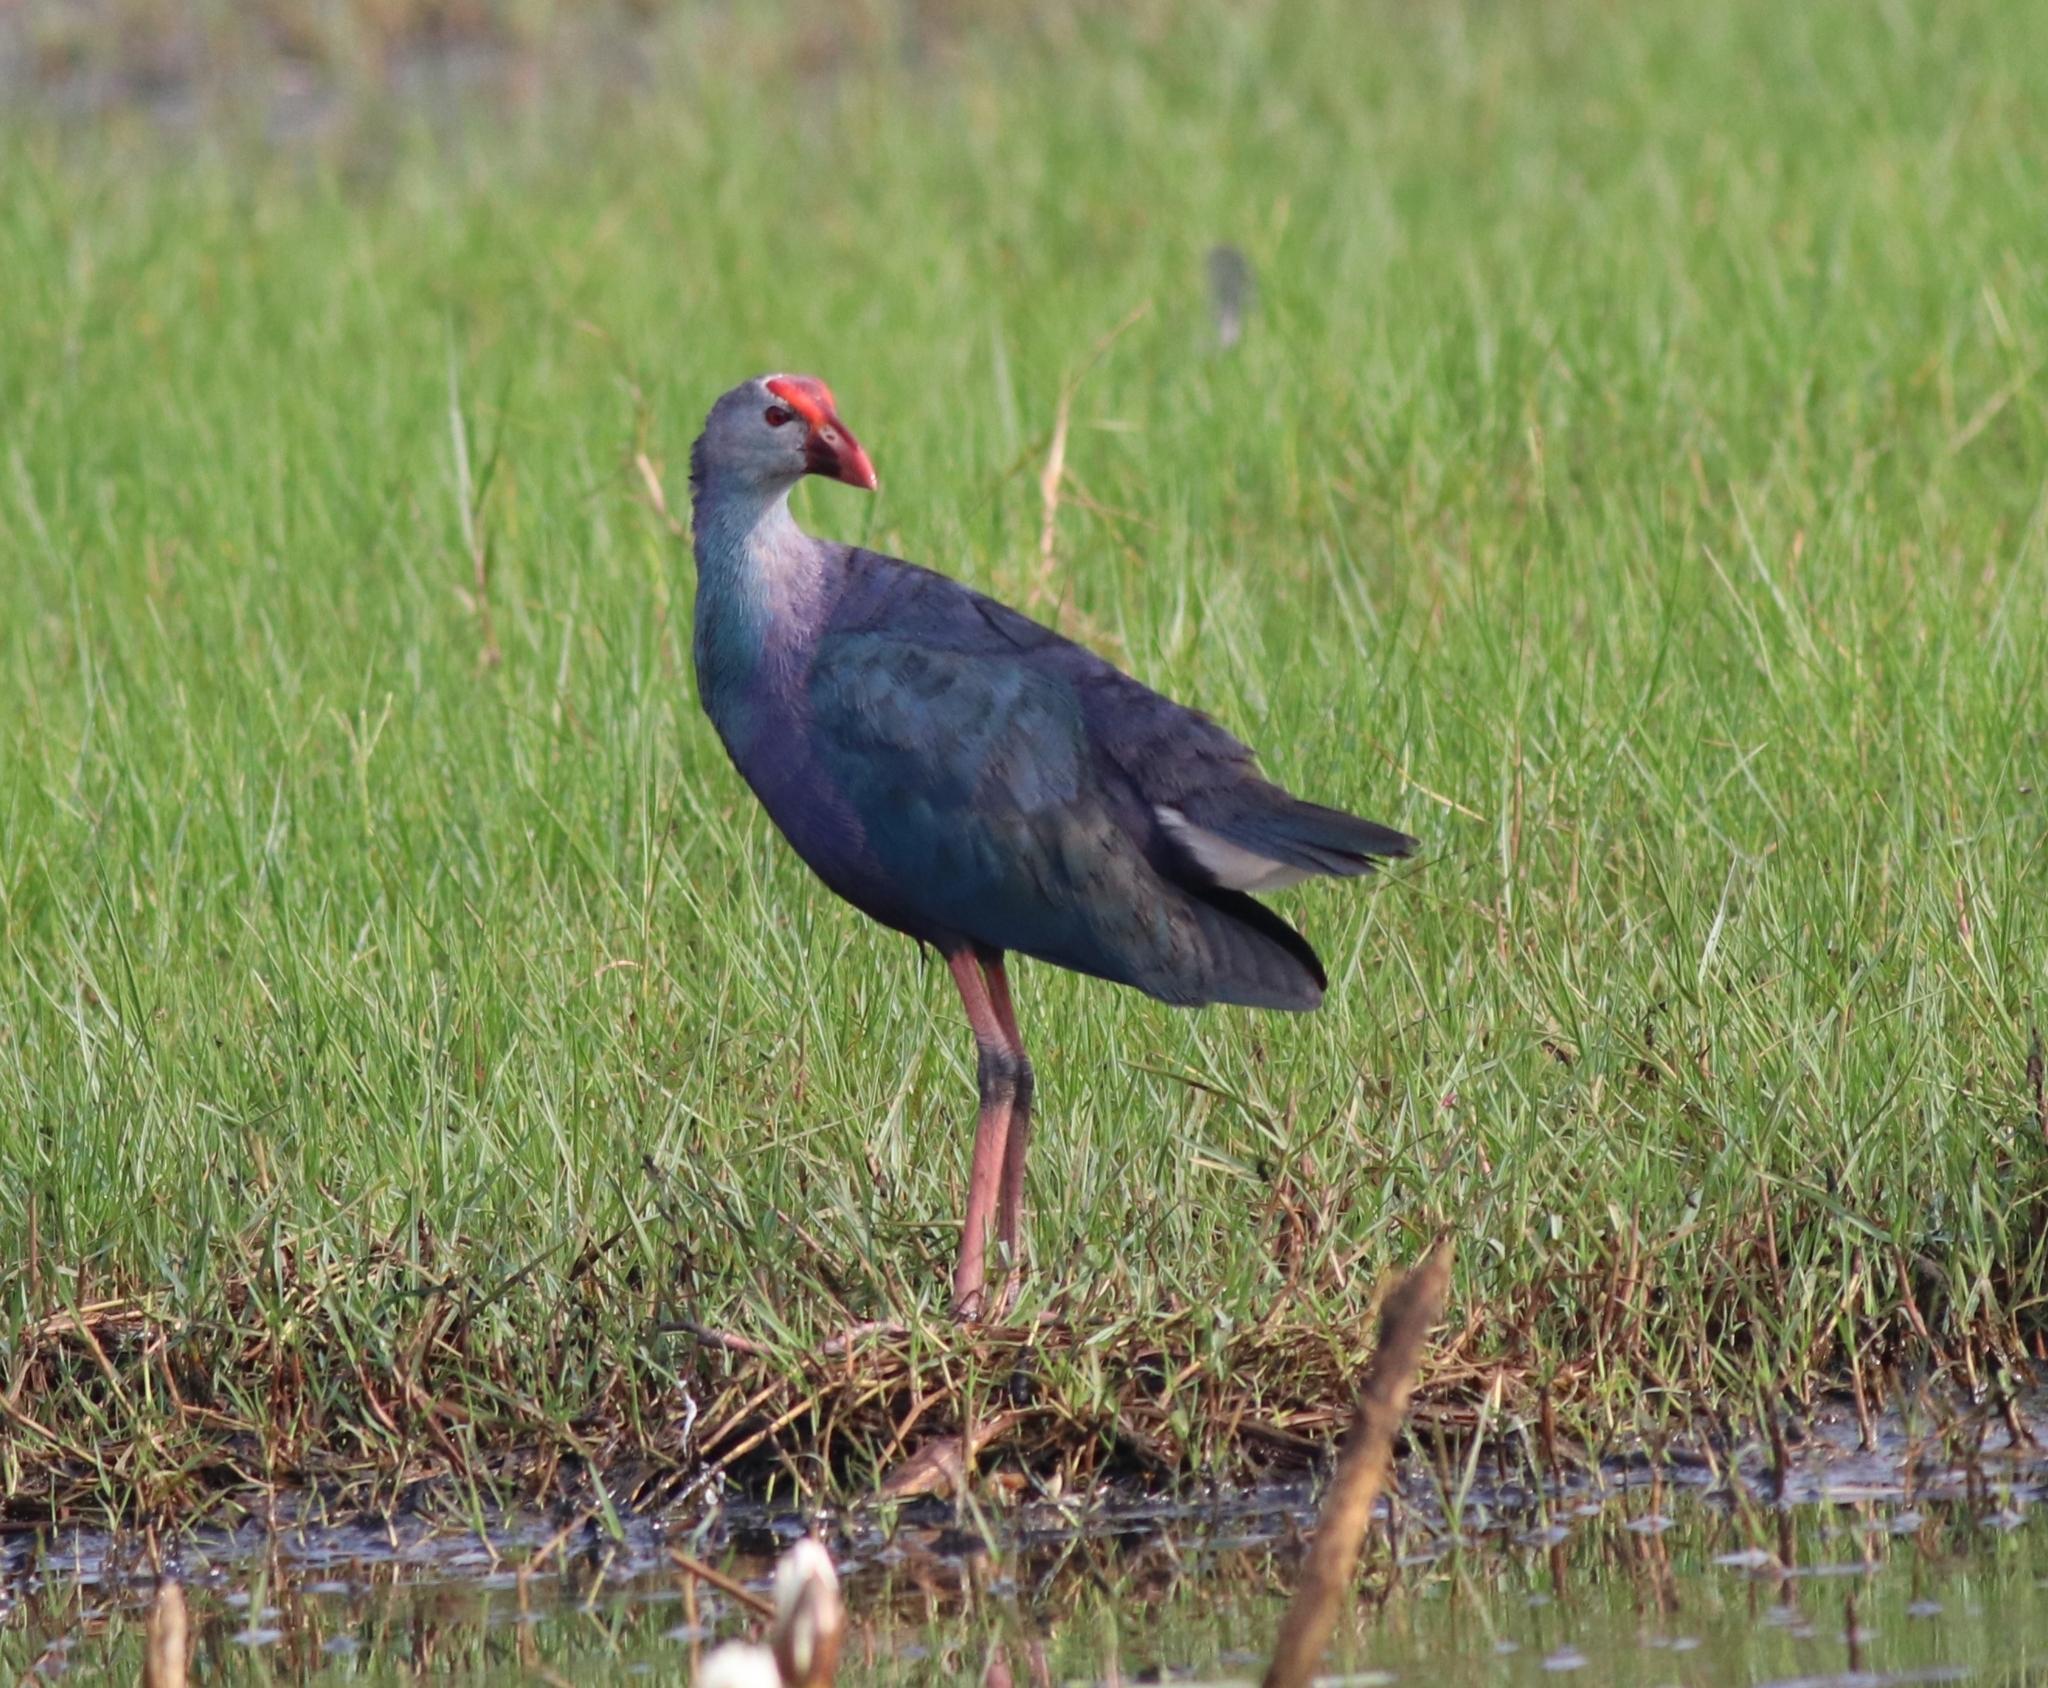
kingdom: Animalia
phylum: Chordata
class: Aves
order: Gruiformes
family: Rallidae
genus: Porphyrio
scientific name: Porphyrio porphyrio
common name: Purple swamphen
